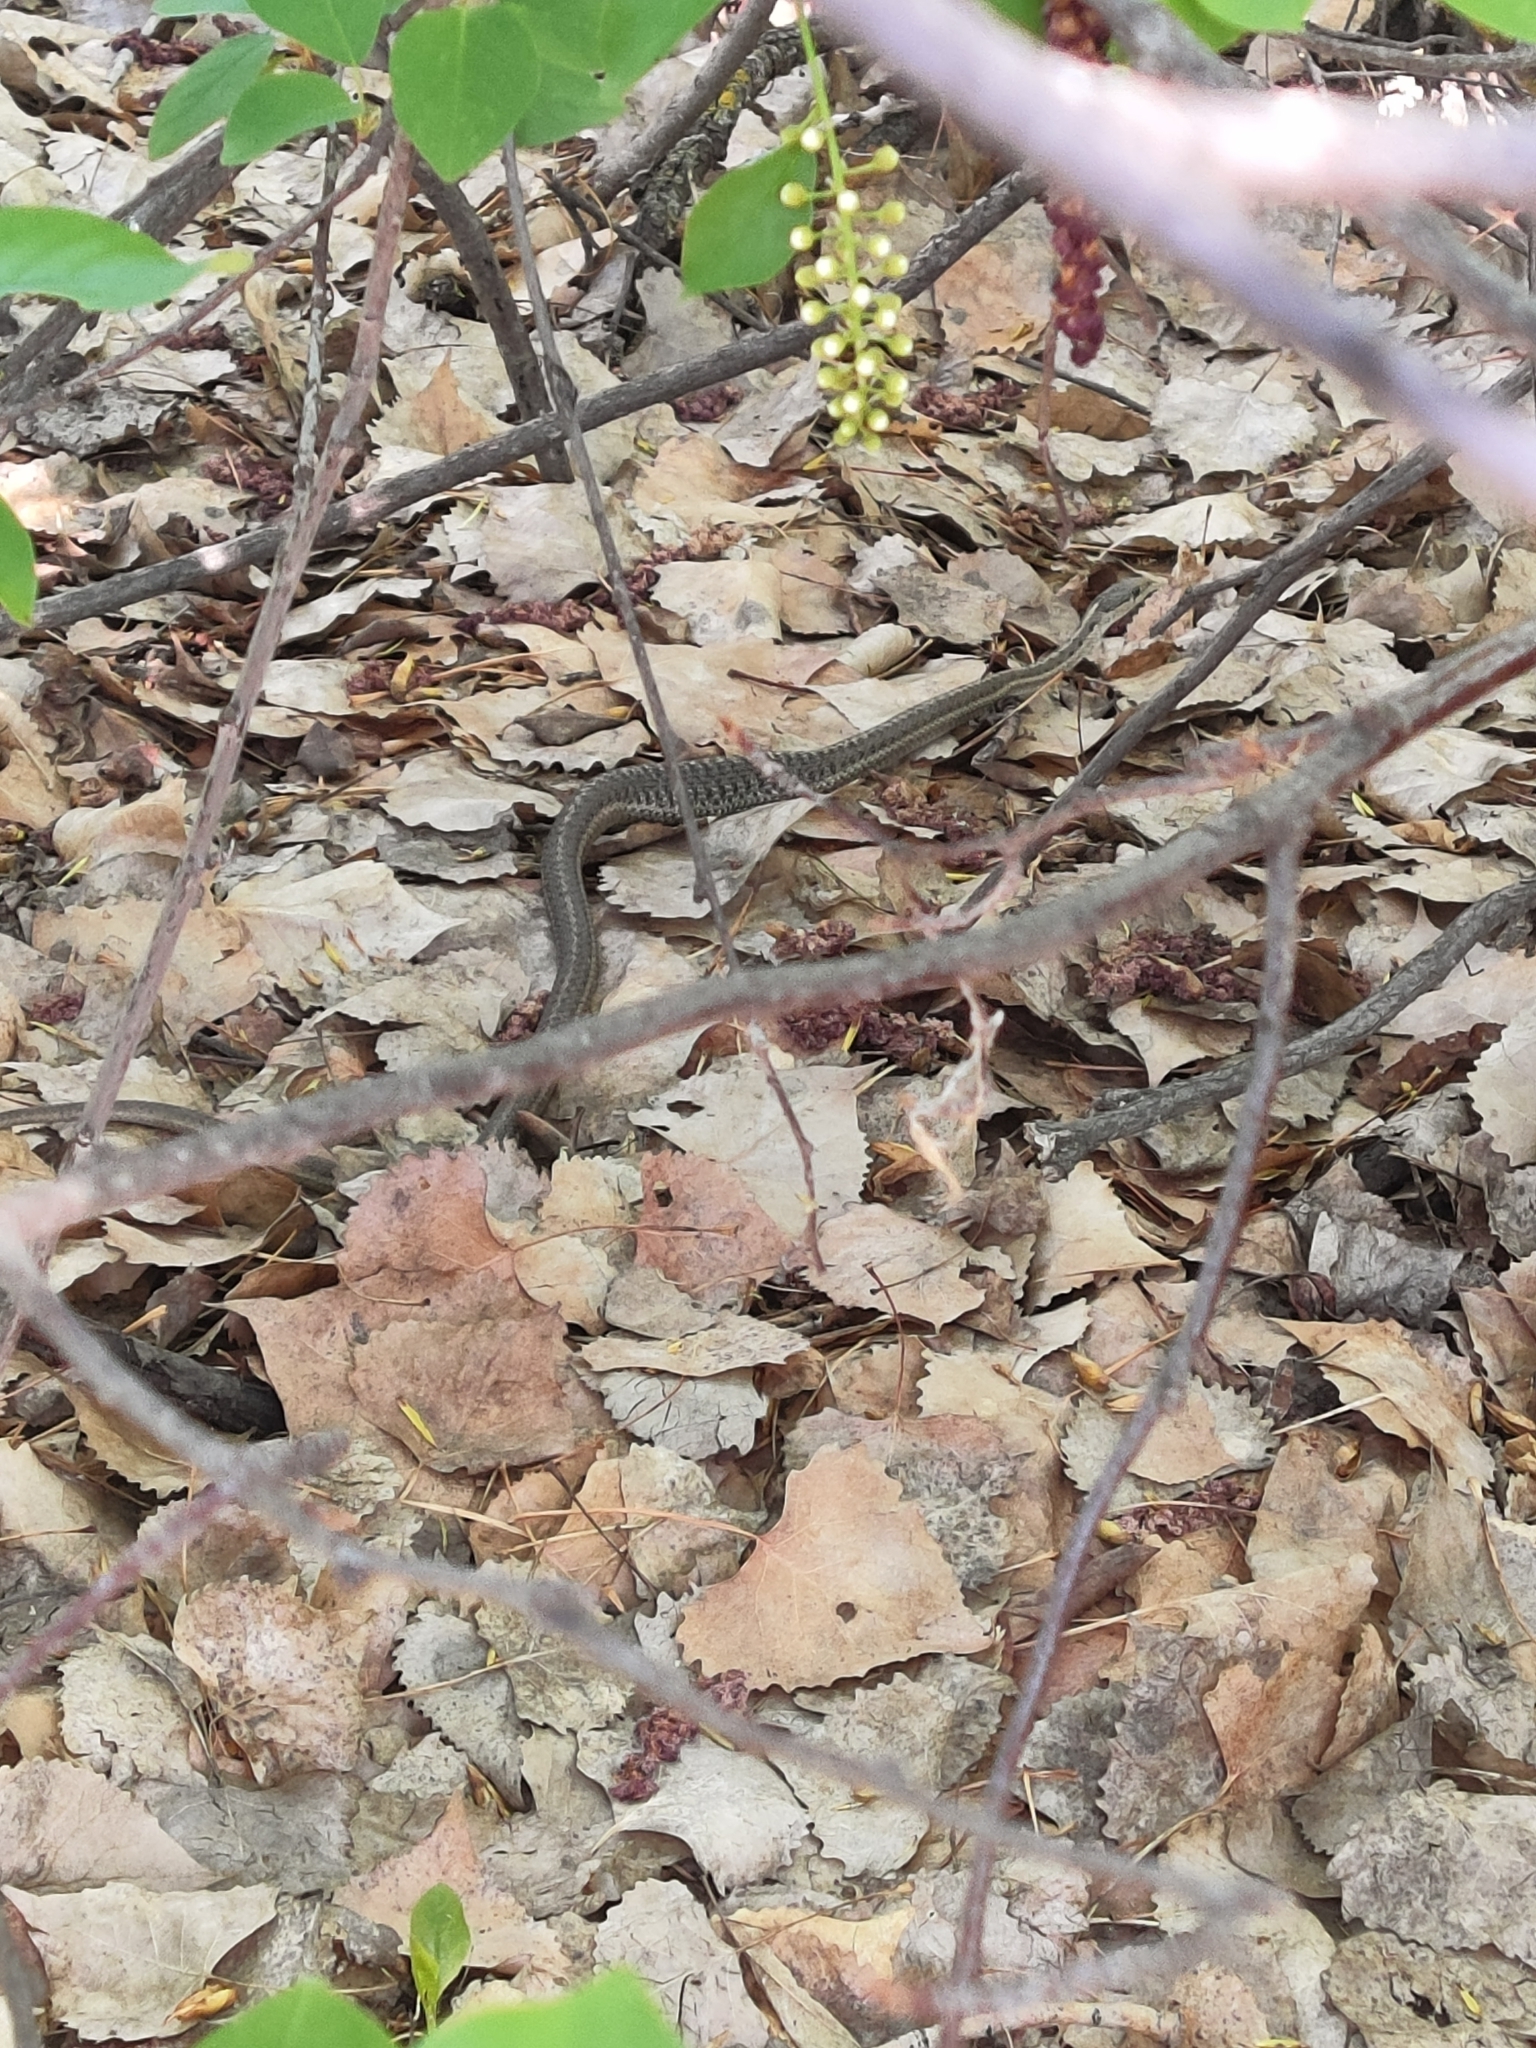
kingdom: Animalia
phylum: Chordata
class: Squamata
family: Colubridae
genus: Thamnophis
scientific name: Thamnophis elegans
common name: Western terrestrial garter snake
